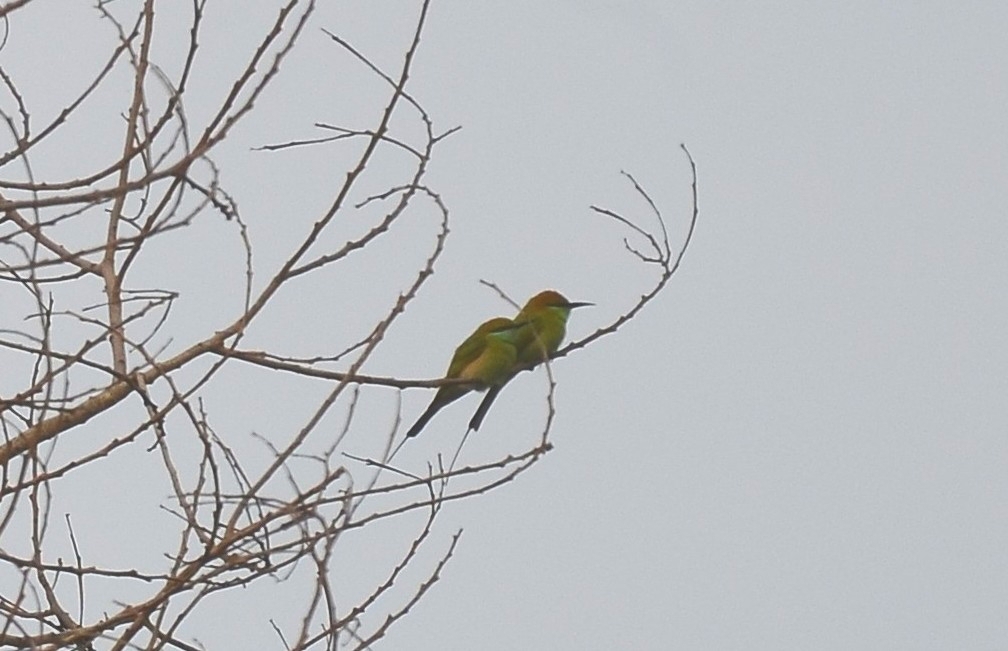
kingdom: Animalia
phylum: Chordata
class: Aves
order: Coraciiformes
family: Meropidae
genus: Merops
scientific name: Merops orientalis
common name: Green bee-eater
